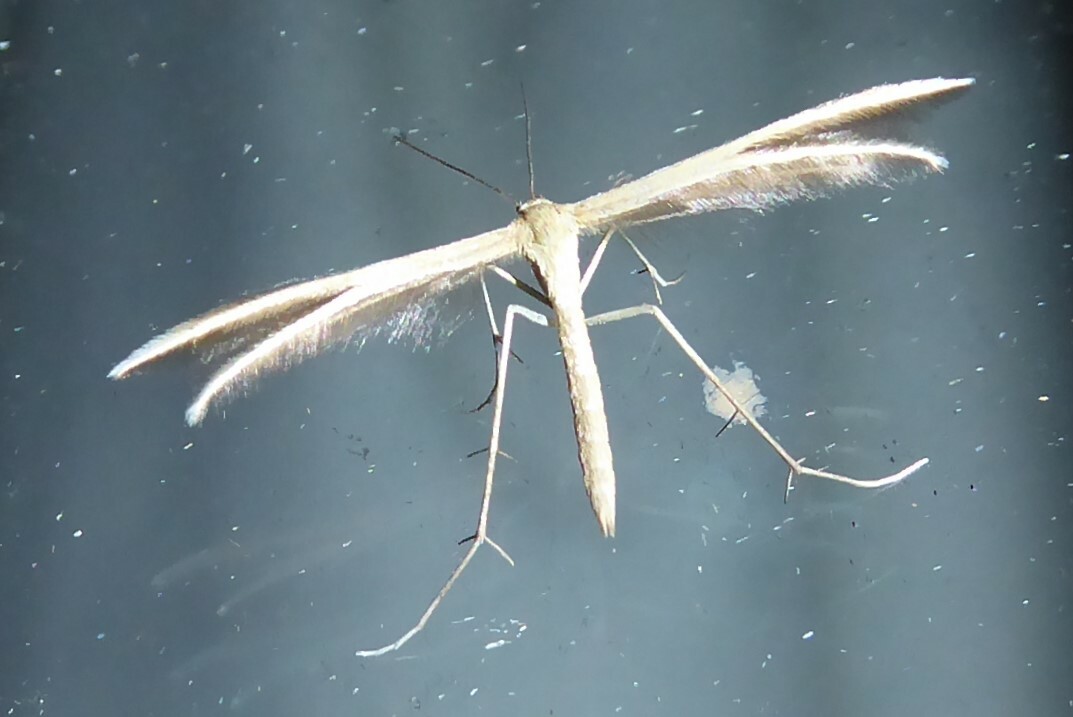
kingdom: Animalia
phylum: Arthropoda
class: Insecta
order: Lepidoptera
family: Pterophoridae
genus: Pterophorus
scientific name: Pterophorus innotatalis
